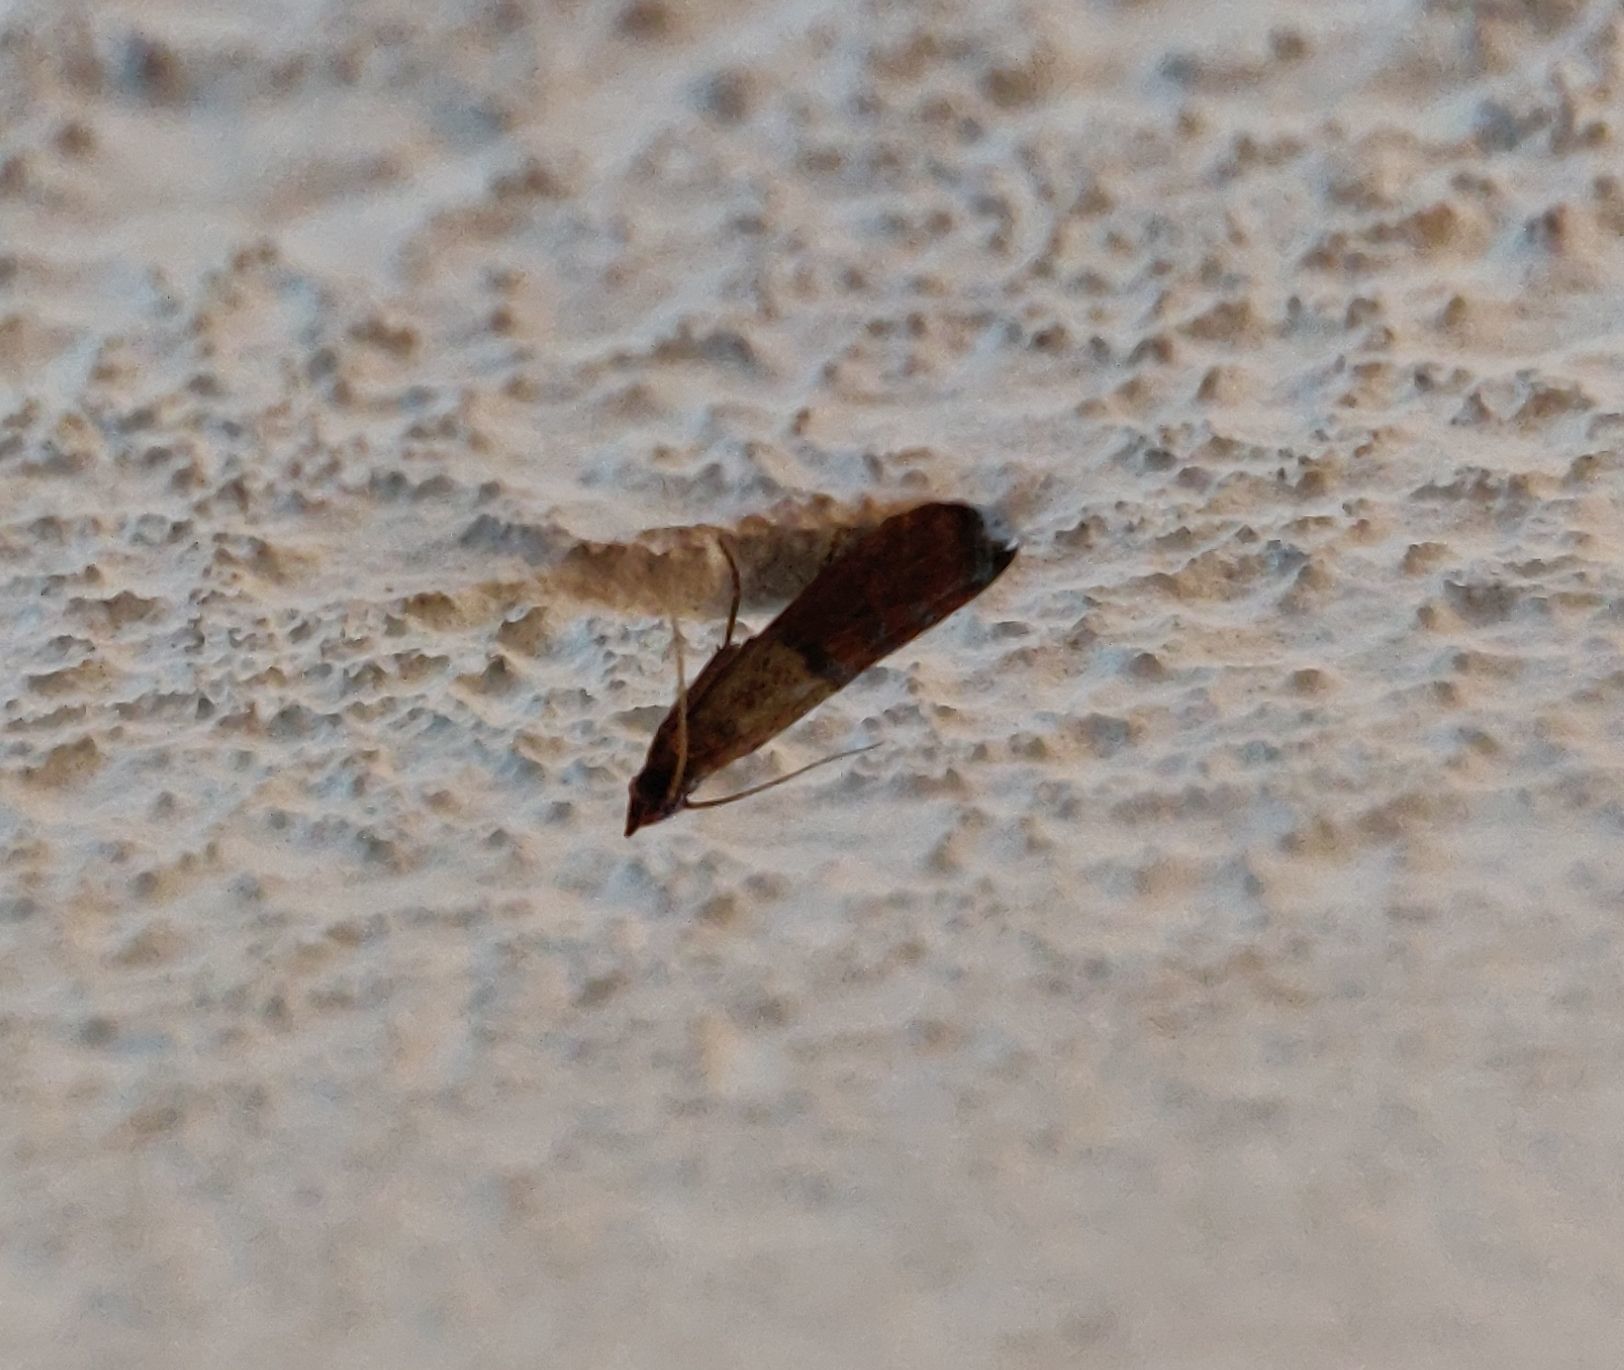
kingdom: Animalia
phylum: Arthropoda
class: Insecta
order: Lepidoptera
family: Pyralidae
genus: Plodia
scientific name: Plodia interpunctella
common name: Indian meal moth
